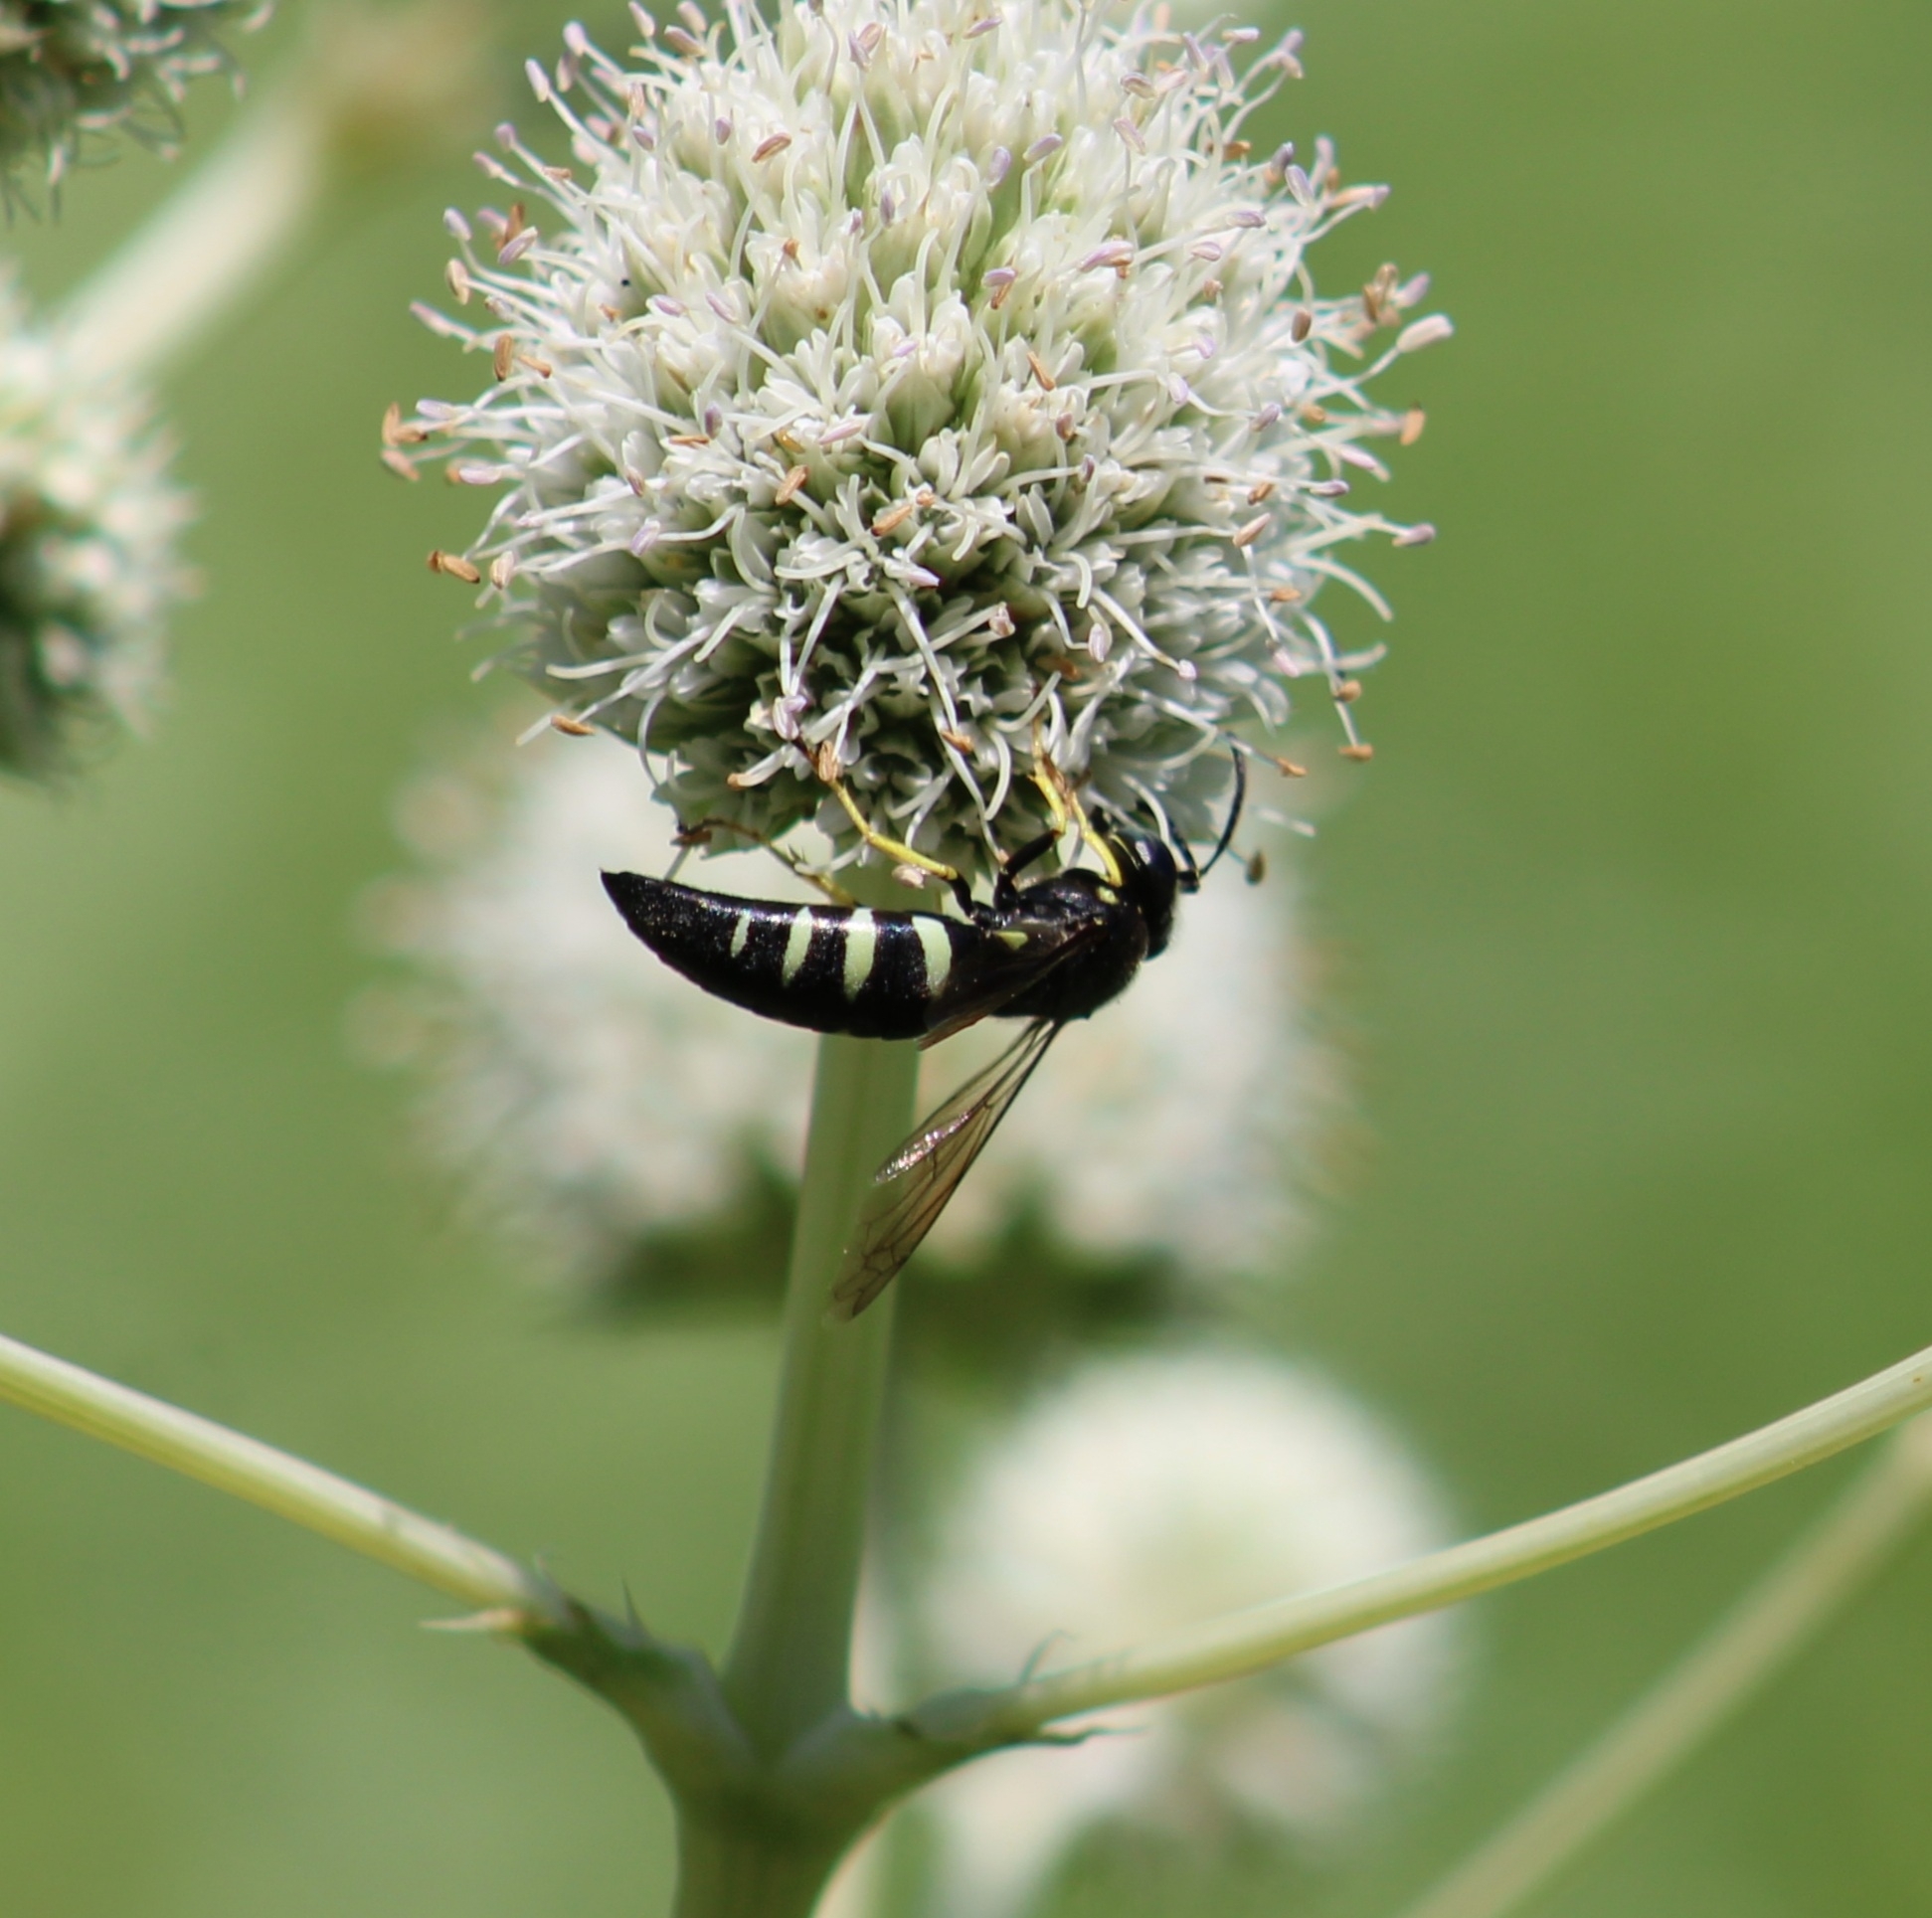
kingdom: Animalia
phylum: Arthropoda
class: Insecta
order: Hymenoptera
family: Crabronidae
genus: Bicyrtes
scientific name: Bicyrtes quadrifasciatus
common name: Four-banded stink bug hunter wasp
